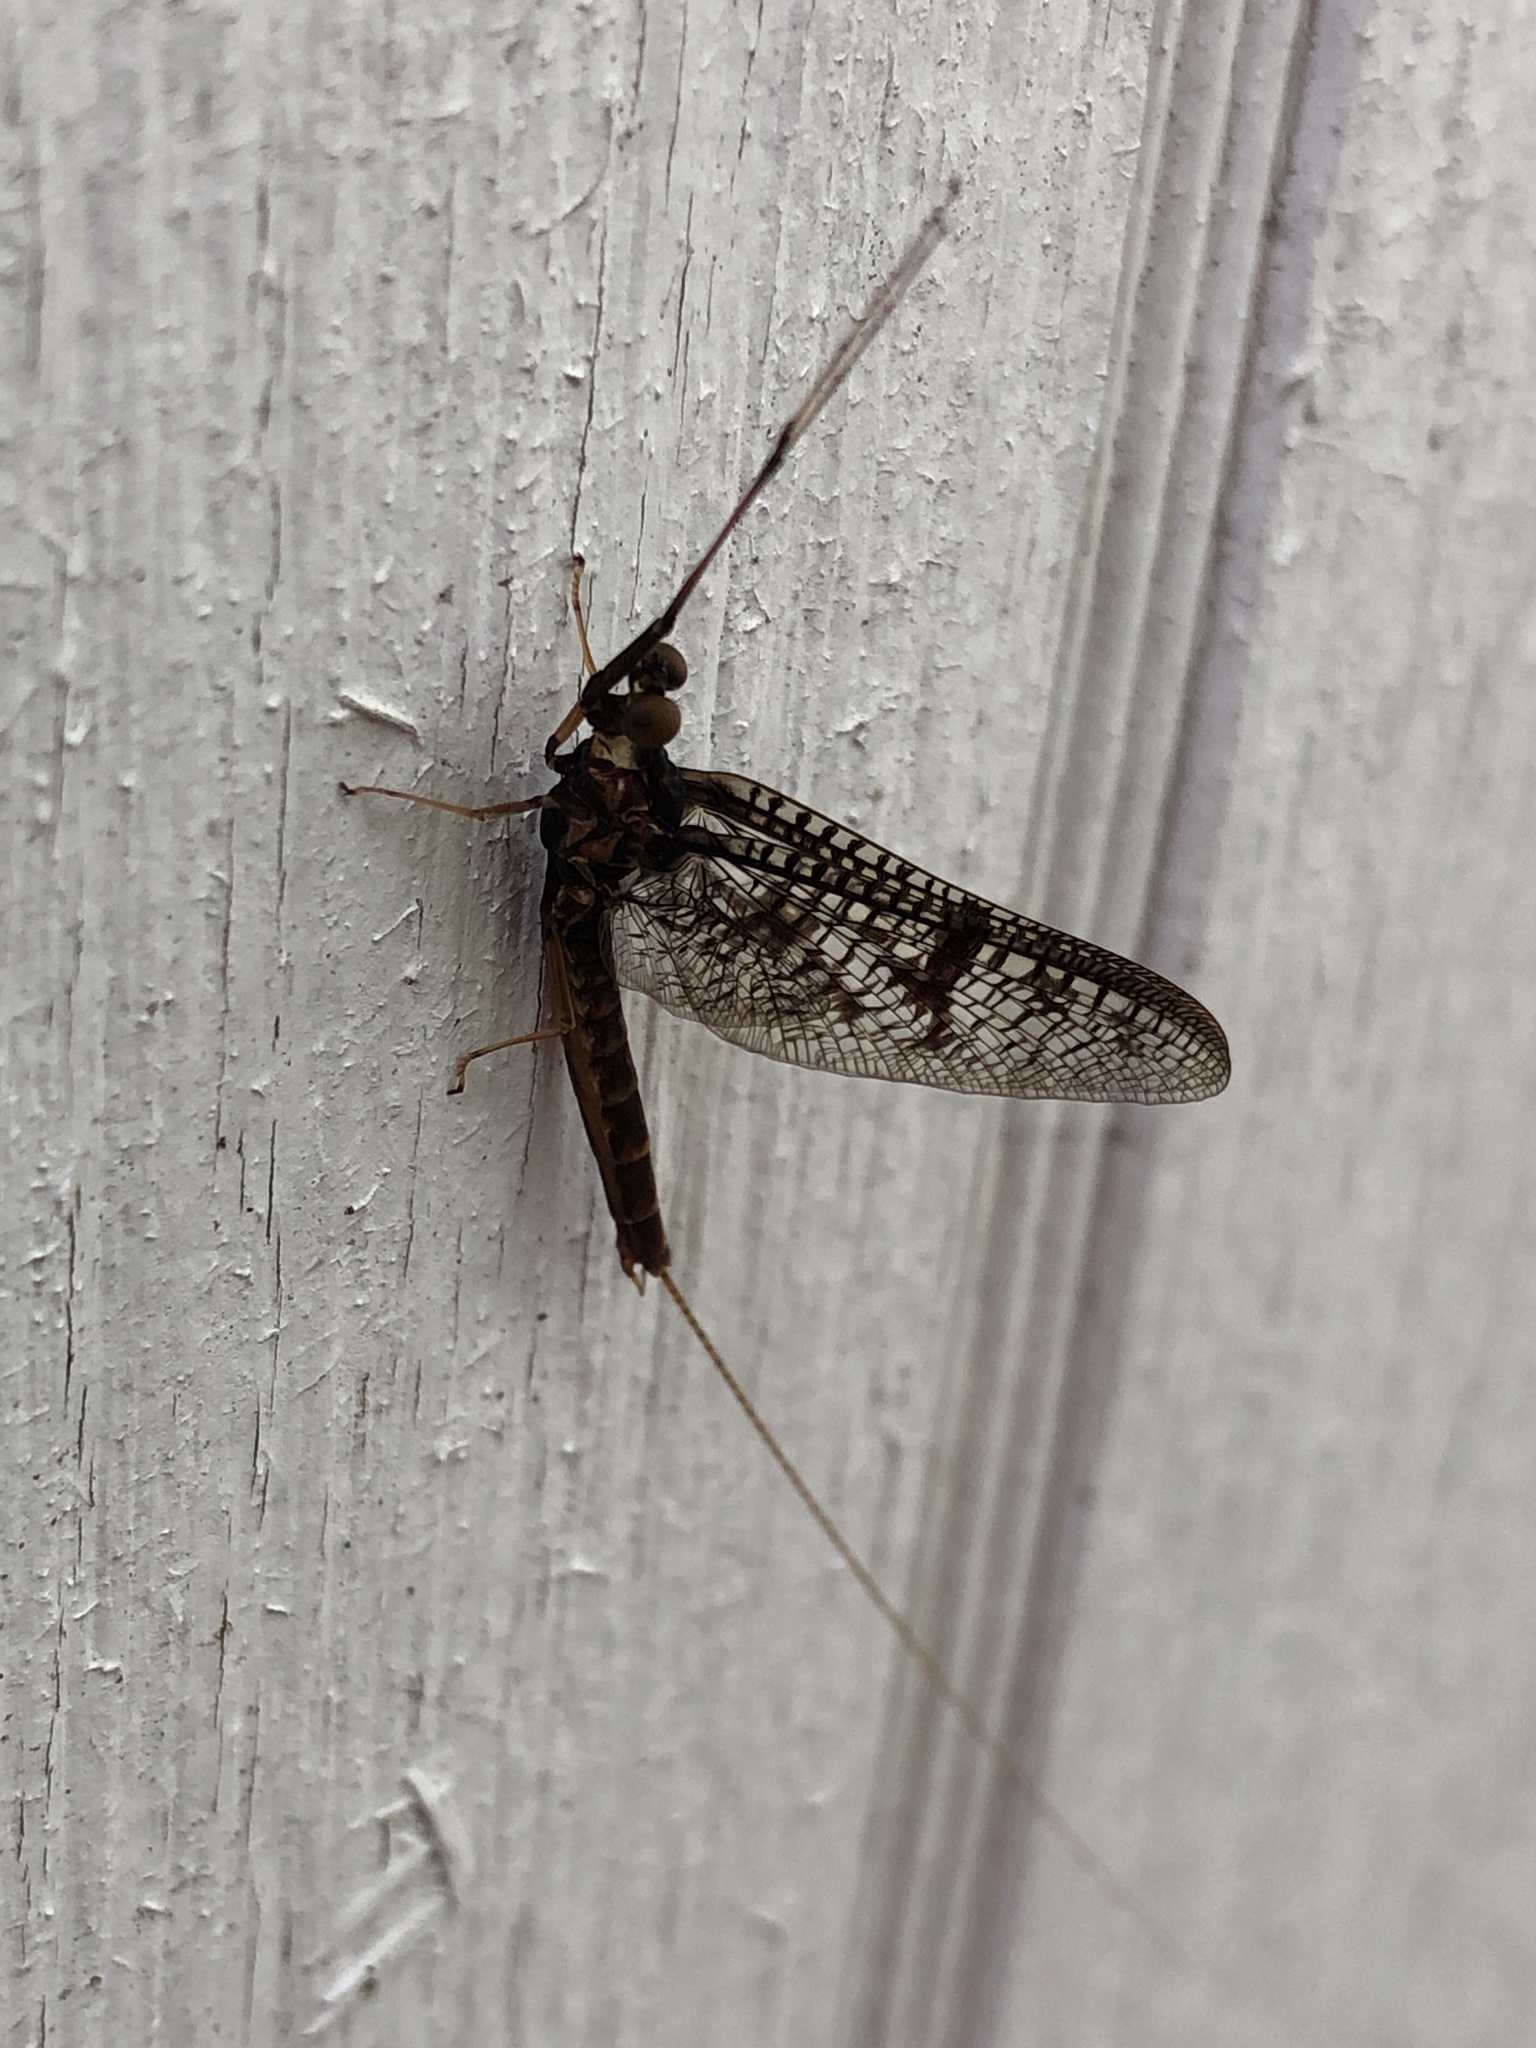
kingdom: Animalia
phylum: Arthropoda
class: Insecta
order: Ephemeroptera
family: Ephemeridae
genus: Ephemera
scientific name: Ephemera simulans
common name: Brown drake
